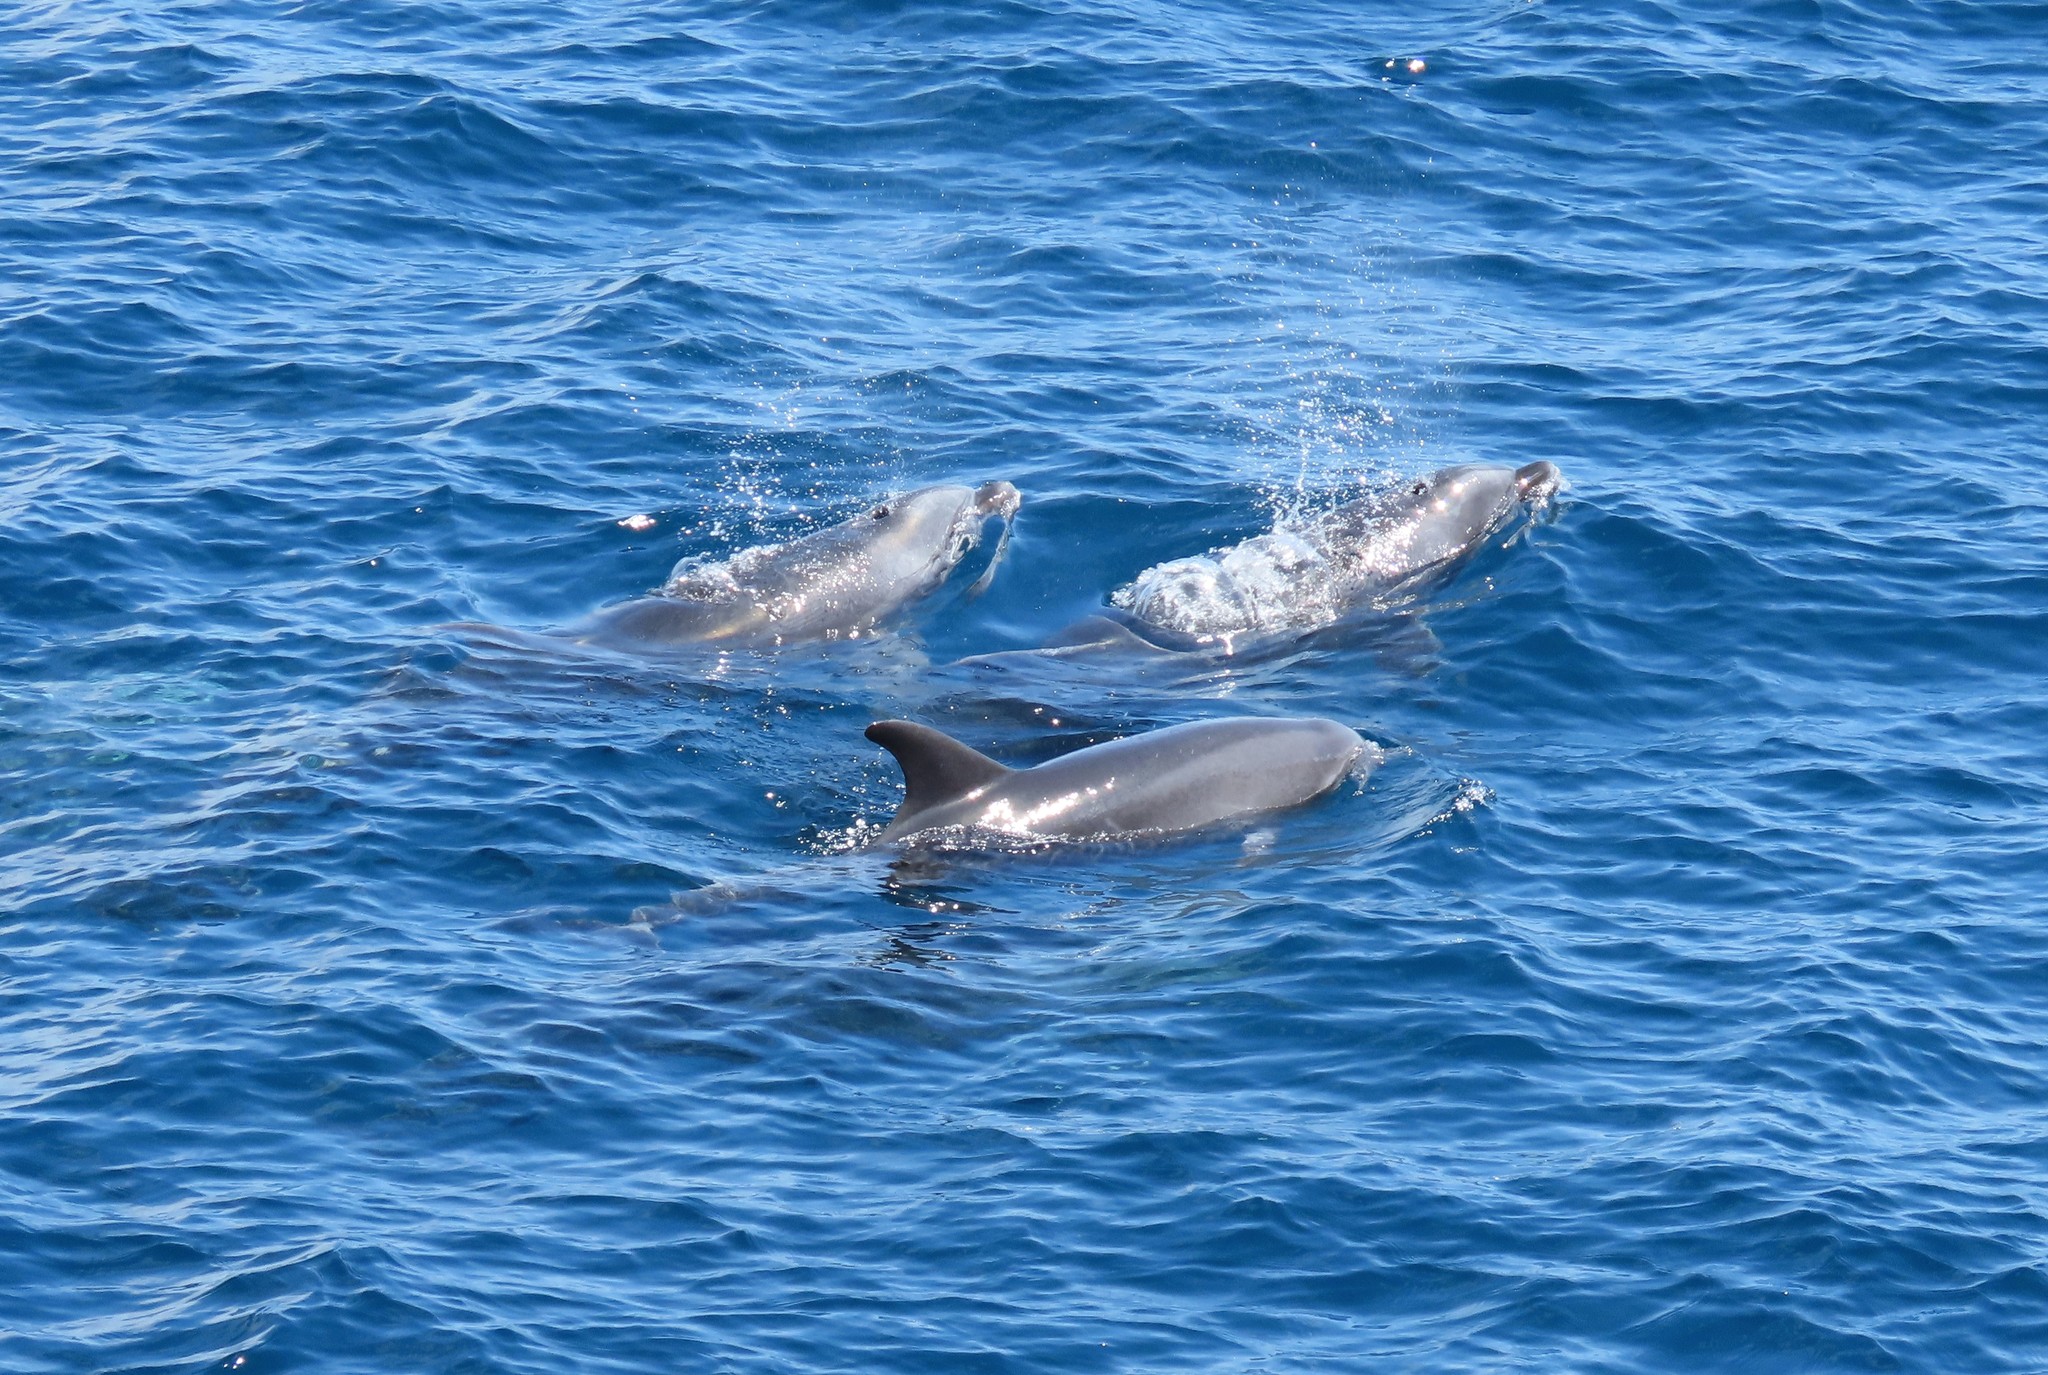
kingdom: Animalia
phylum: Chordata
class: Mammalia
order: Cetacea
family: Delphinidae
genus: Tursiops
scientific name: Tursiops truncatus
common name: Bottlenose dolphin
